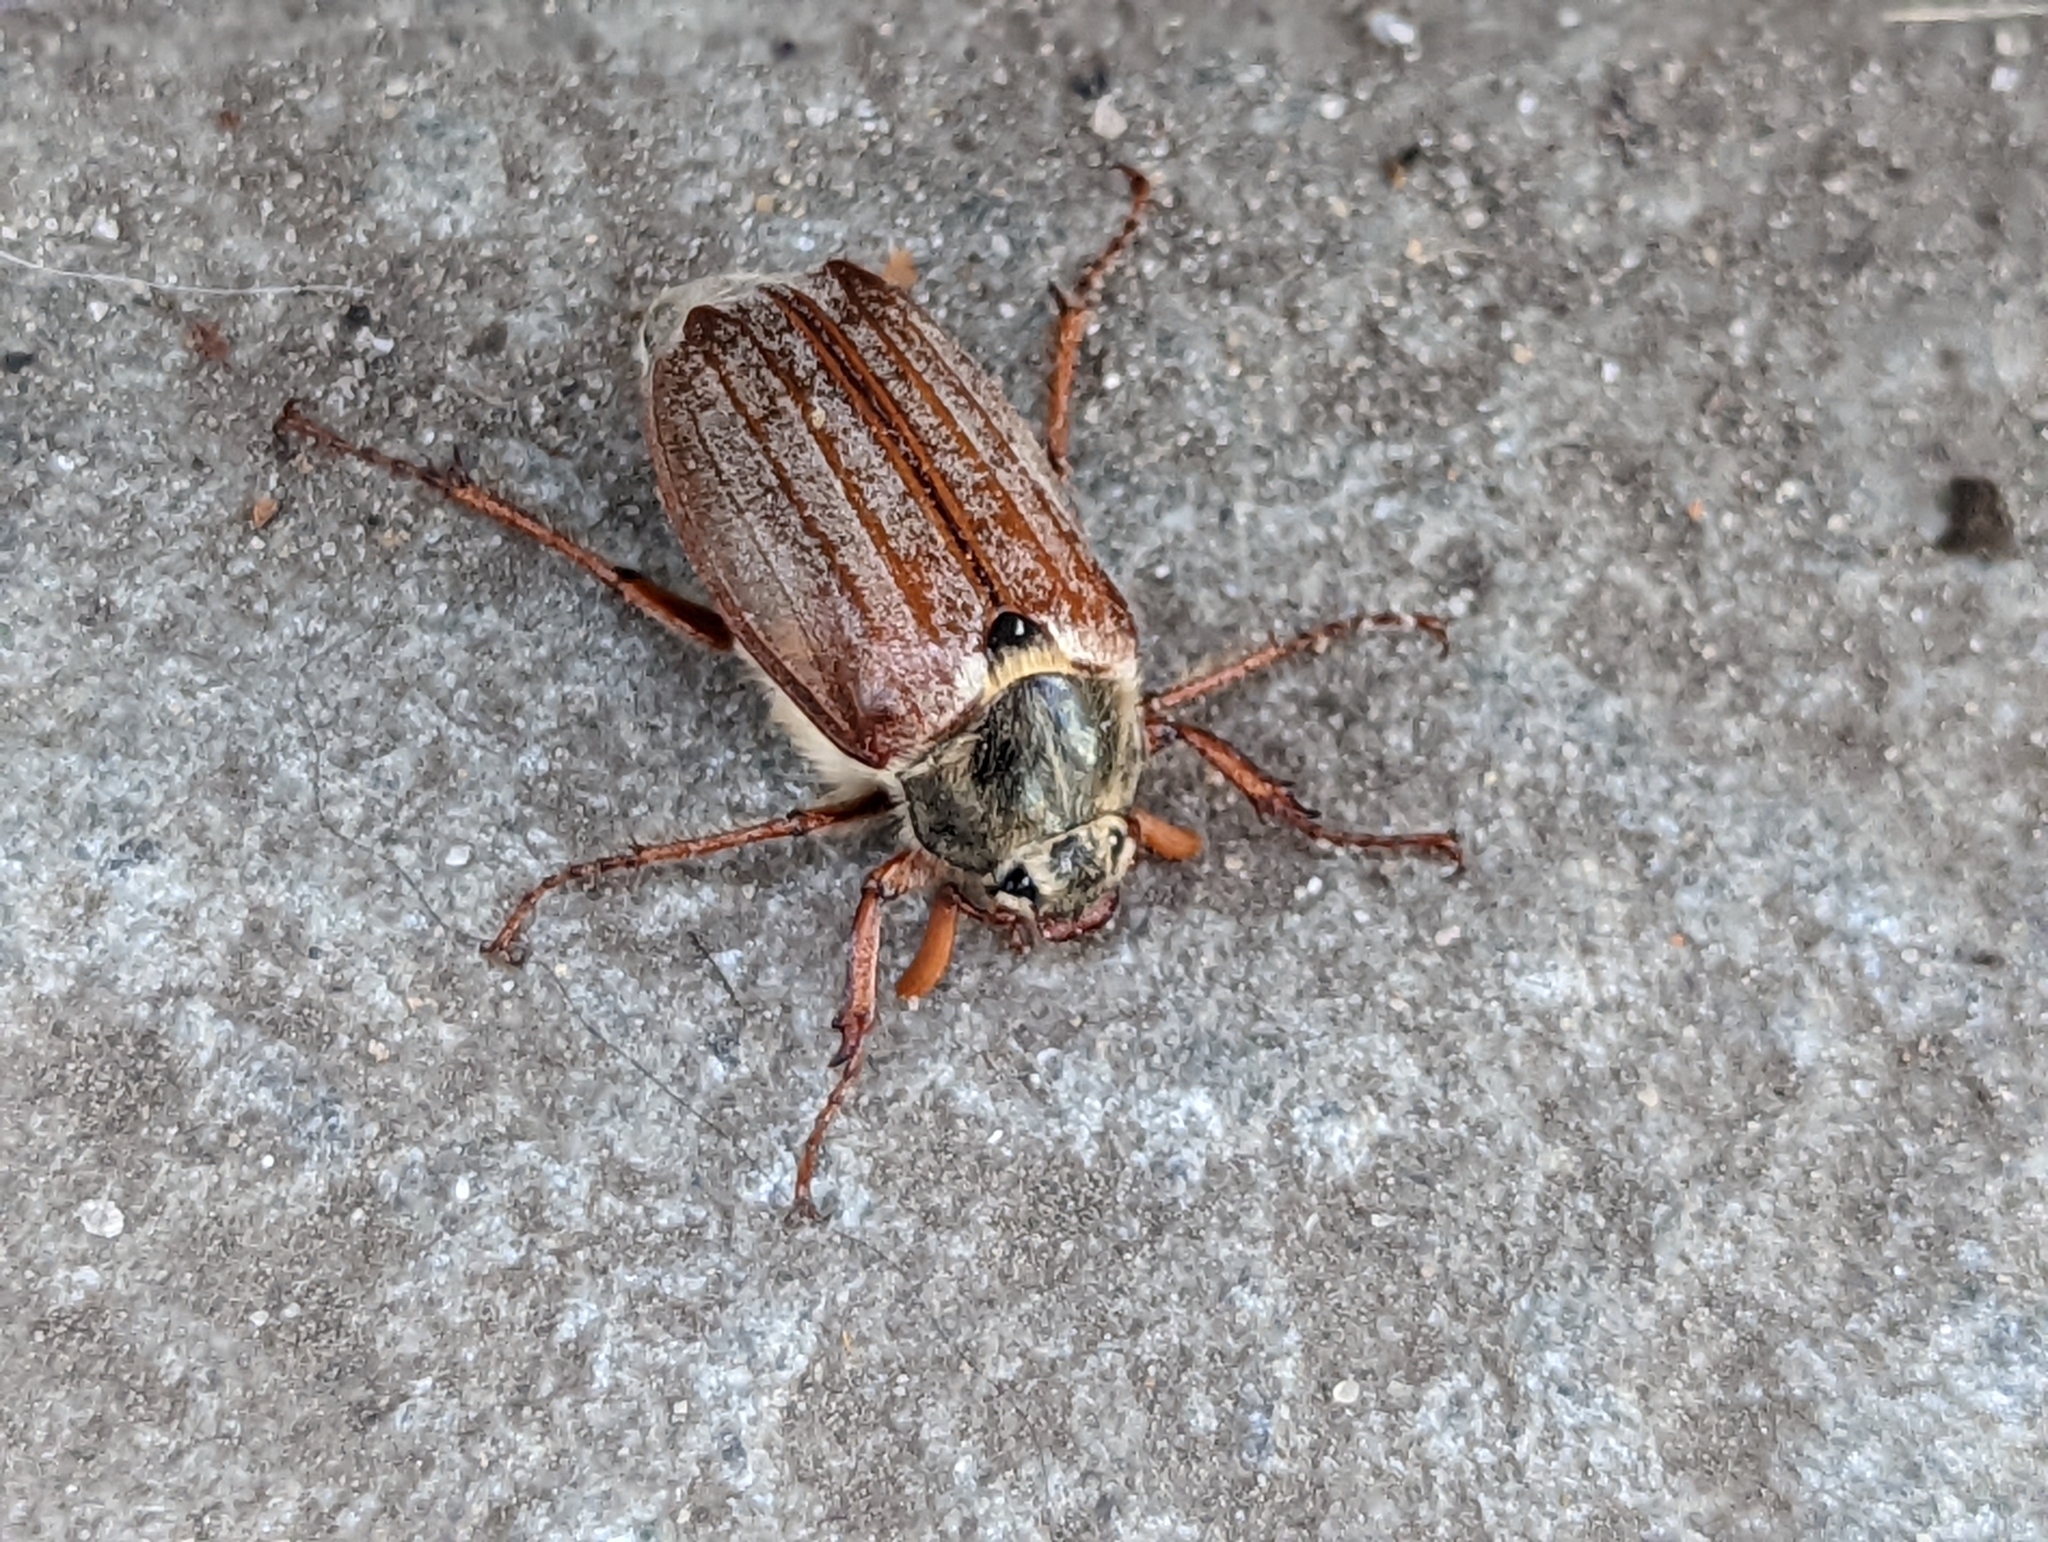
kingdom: Animalia
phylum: Arthropoda
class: Insecta
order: Coleoptera
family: Scarabaeidae
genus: Melolontha
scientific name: Melolontha melolontha
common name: Cockchafer maybeetle
